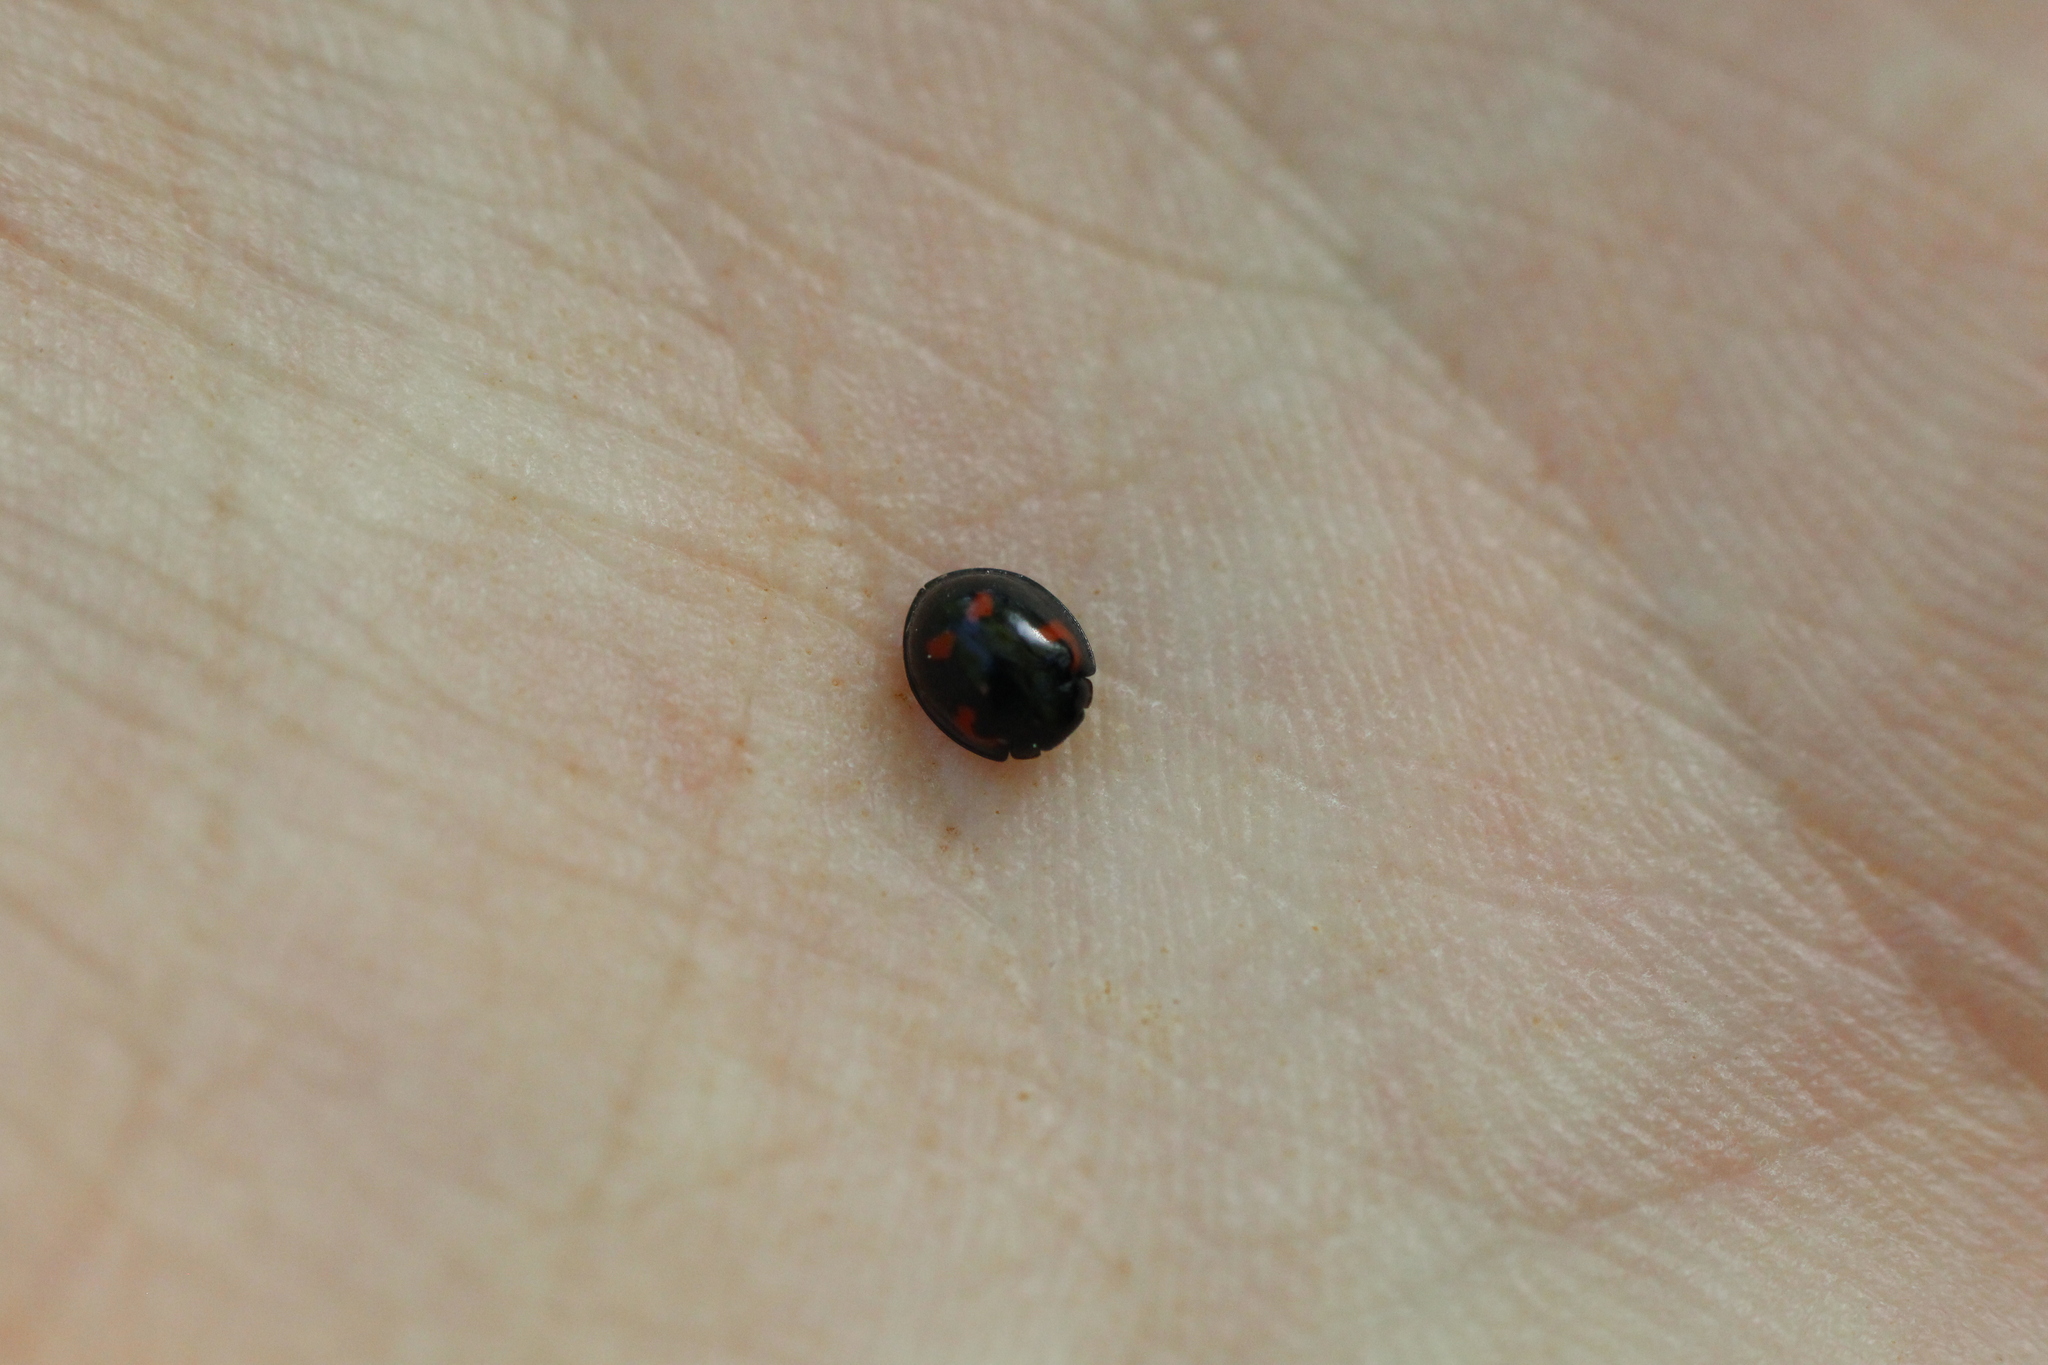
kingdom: Animalia
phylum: Arthropoda
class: Insecta
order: Coleoptera
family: Coccinellidae
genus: Brumus
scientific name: Brumus quadripustulatus
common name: Ladybird beetle
